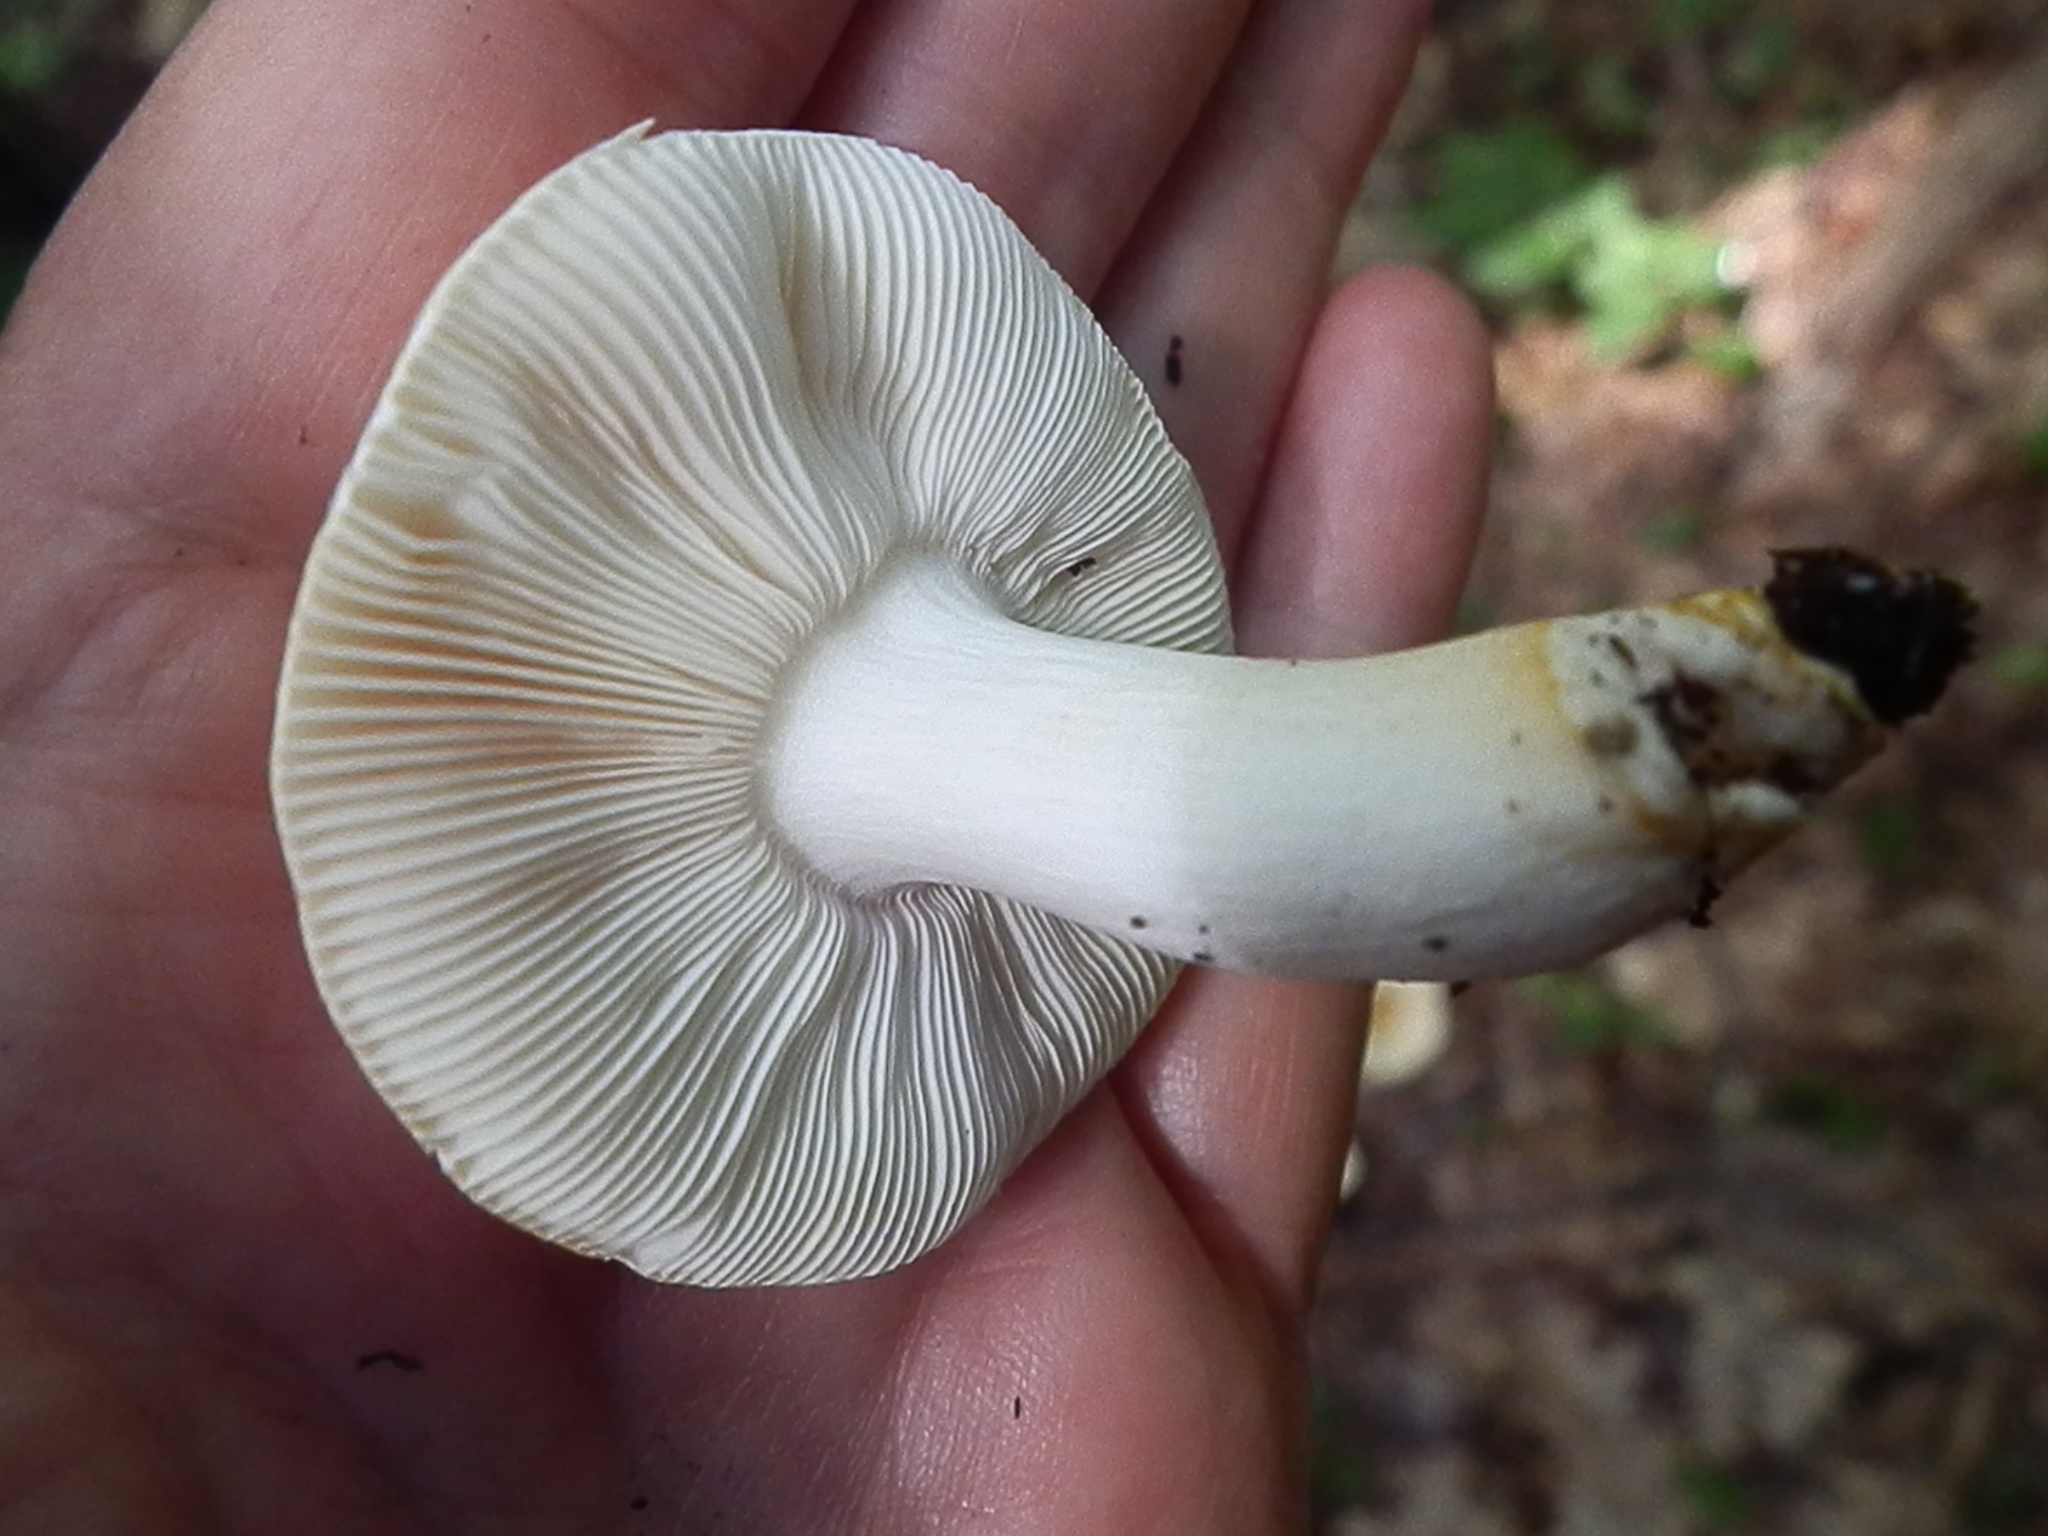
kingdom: Fungi
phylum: Basidiomycota
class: Agaricomycetes
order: Russulales
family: Russulaceae
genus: Russula
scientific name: Russula ballouii
